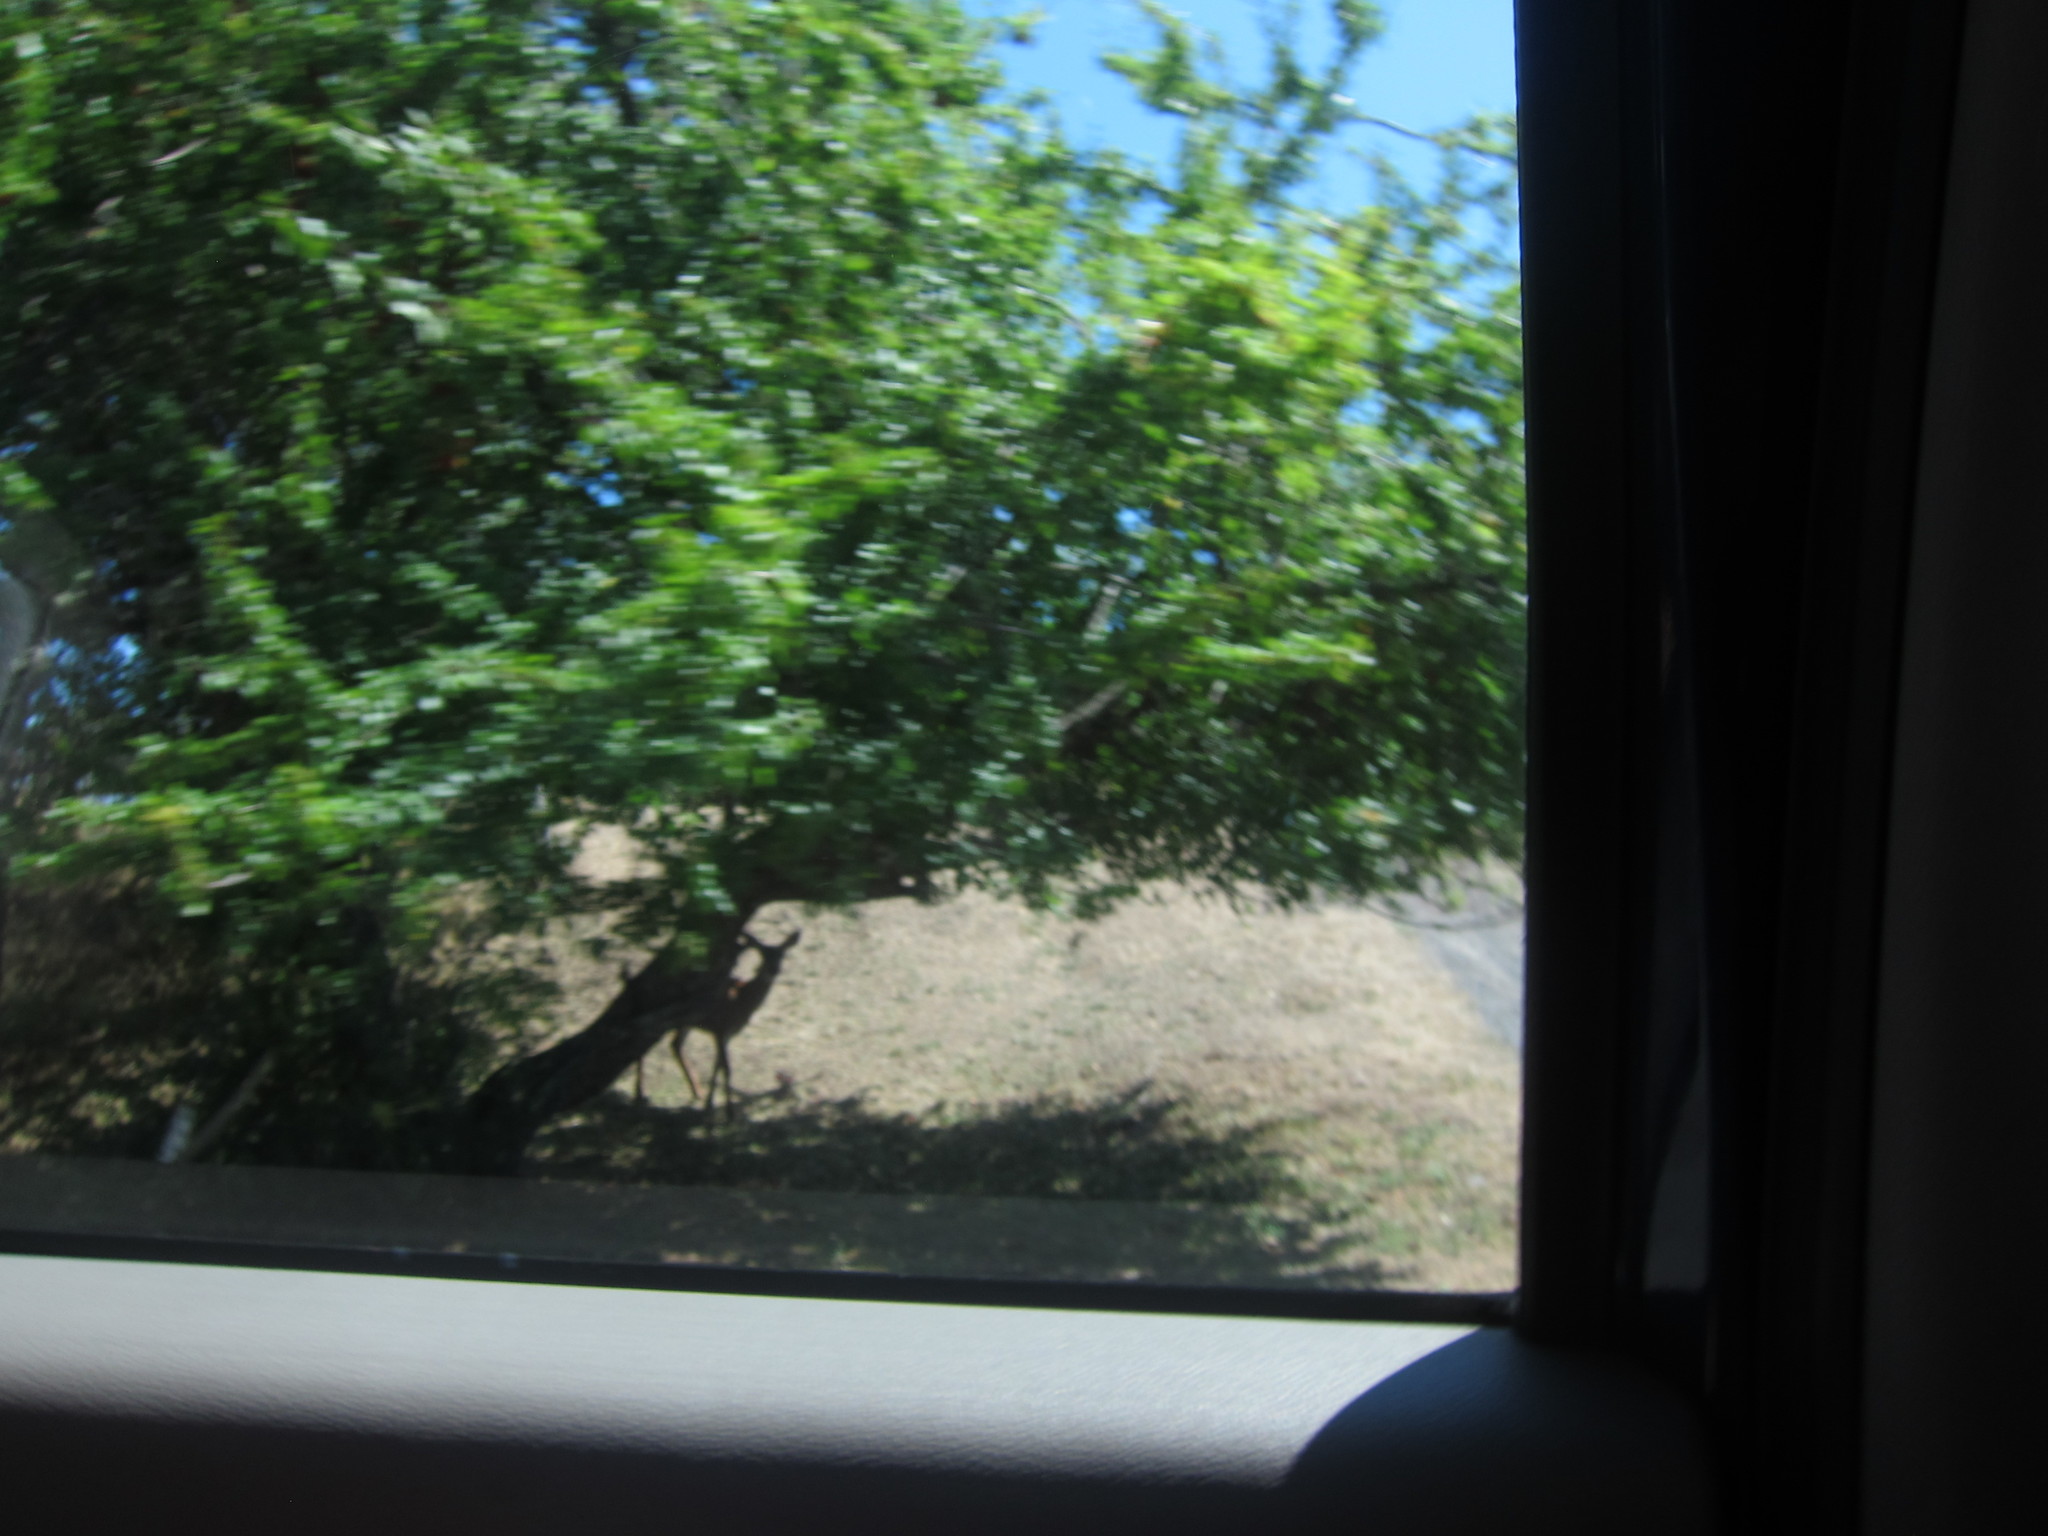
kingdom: Animalia
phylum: Chordata
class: Mammalia
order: Artiodactyla
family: Cervidae
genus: Odocoileus
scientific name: Odocoileus hemionus
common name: Mule deer
